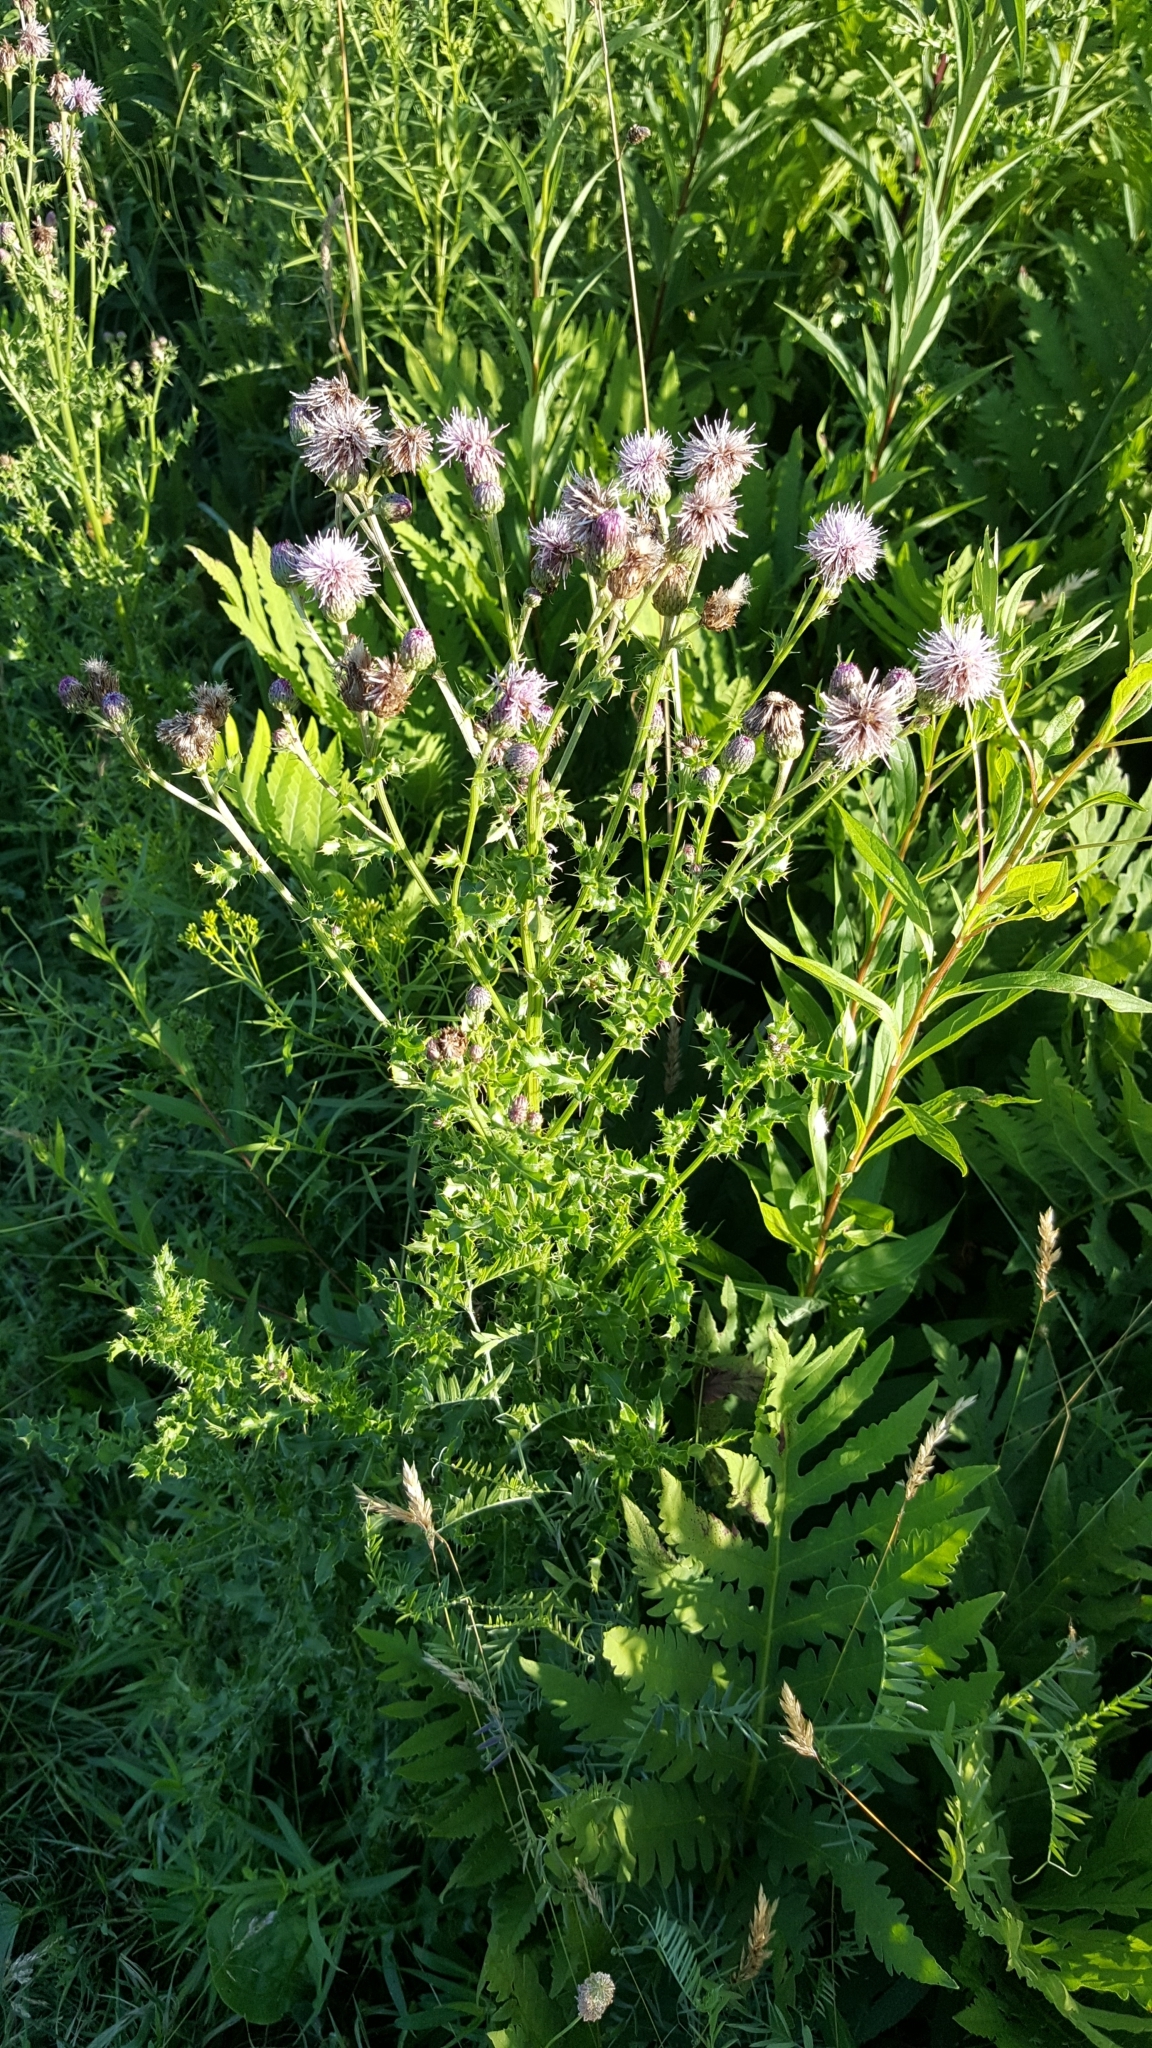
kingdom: Plantae
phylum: Tracheophyta
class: Magnoliopsida
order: Asterales
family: Asteraceae
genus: Cirsium
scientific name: Cirsium arvense
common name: Creeping thistle
